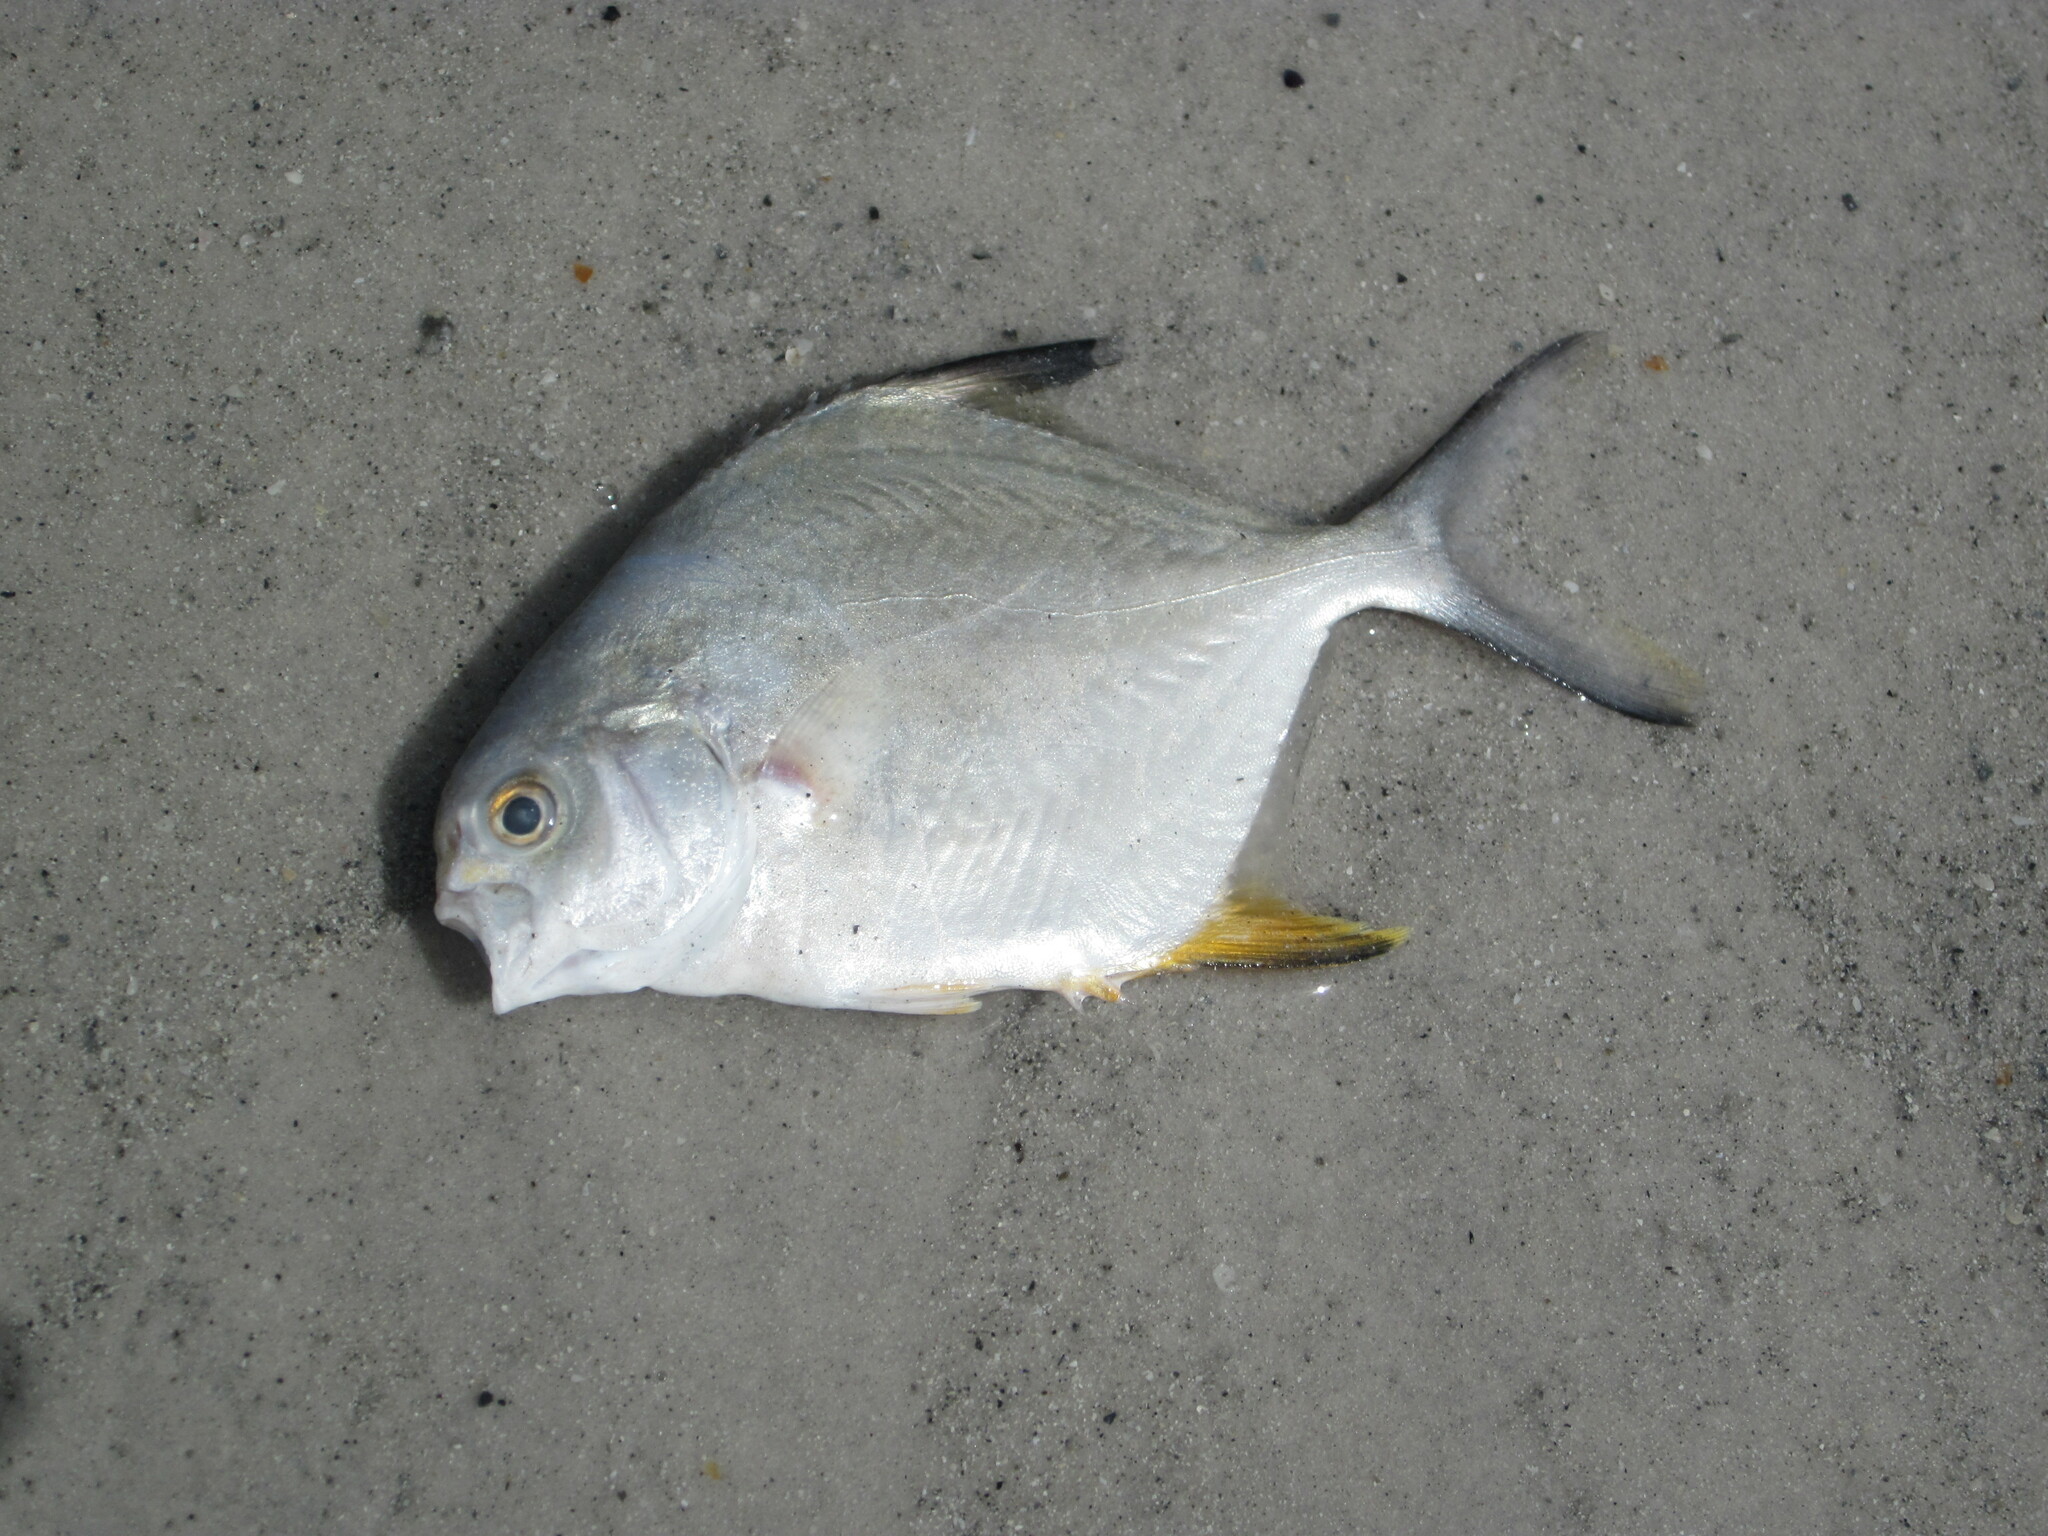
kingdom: Animalia
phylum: Chordata
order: Perciformes
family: Carangidae
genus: Trachinotus
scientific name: Trachinotus falcatus
